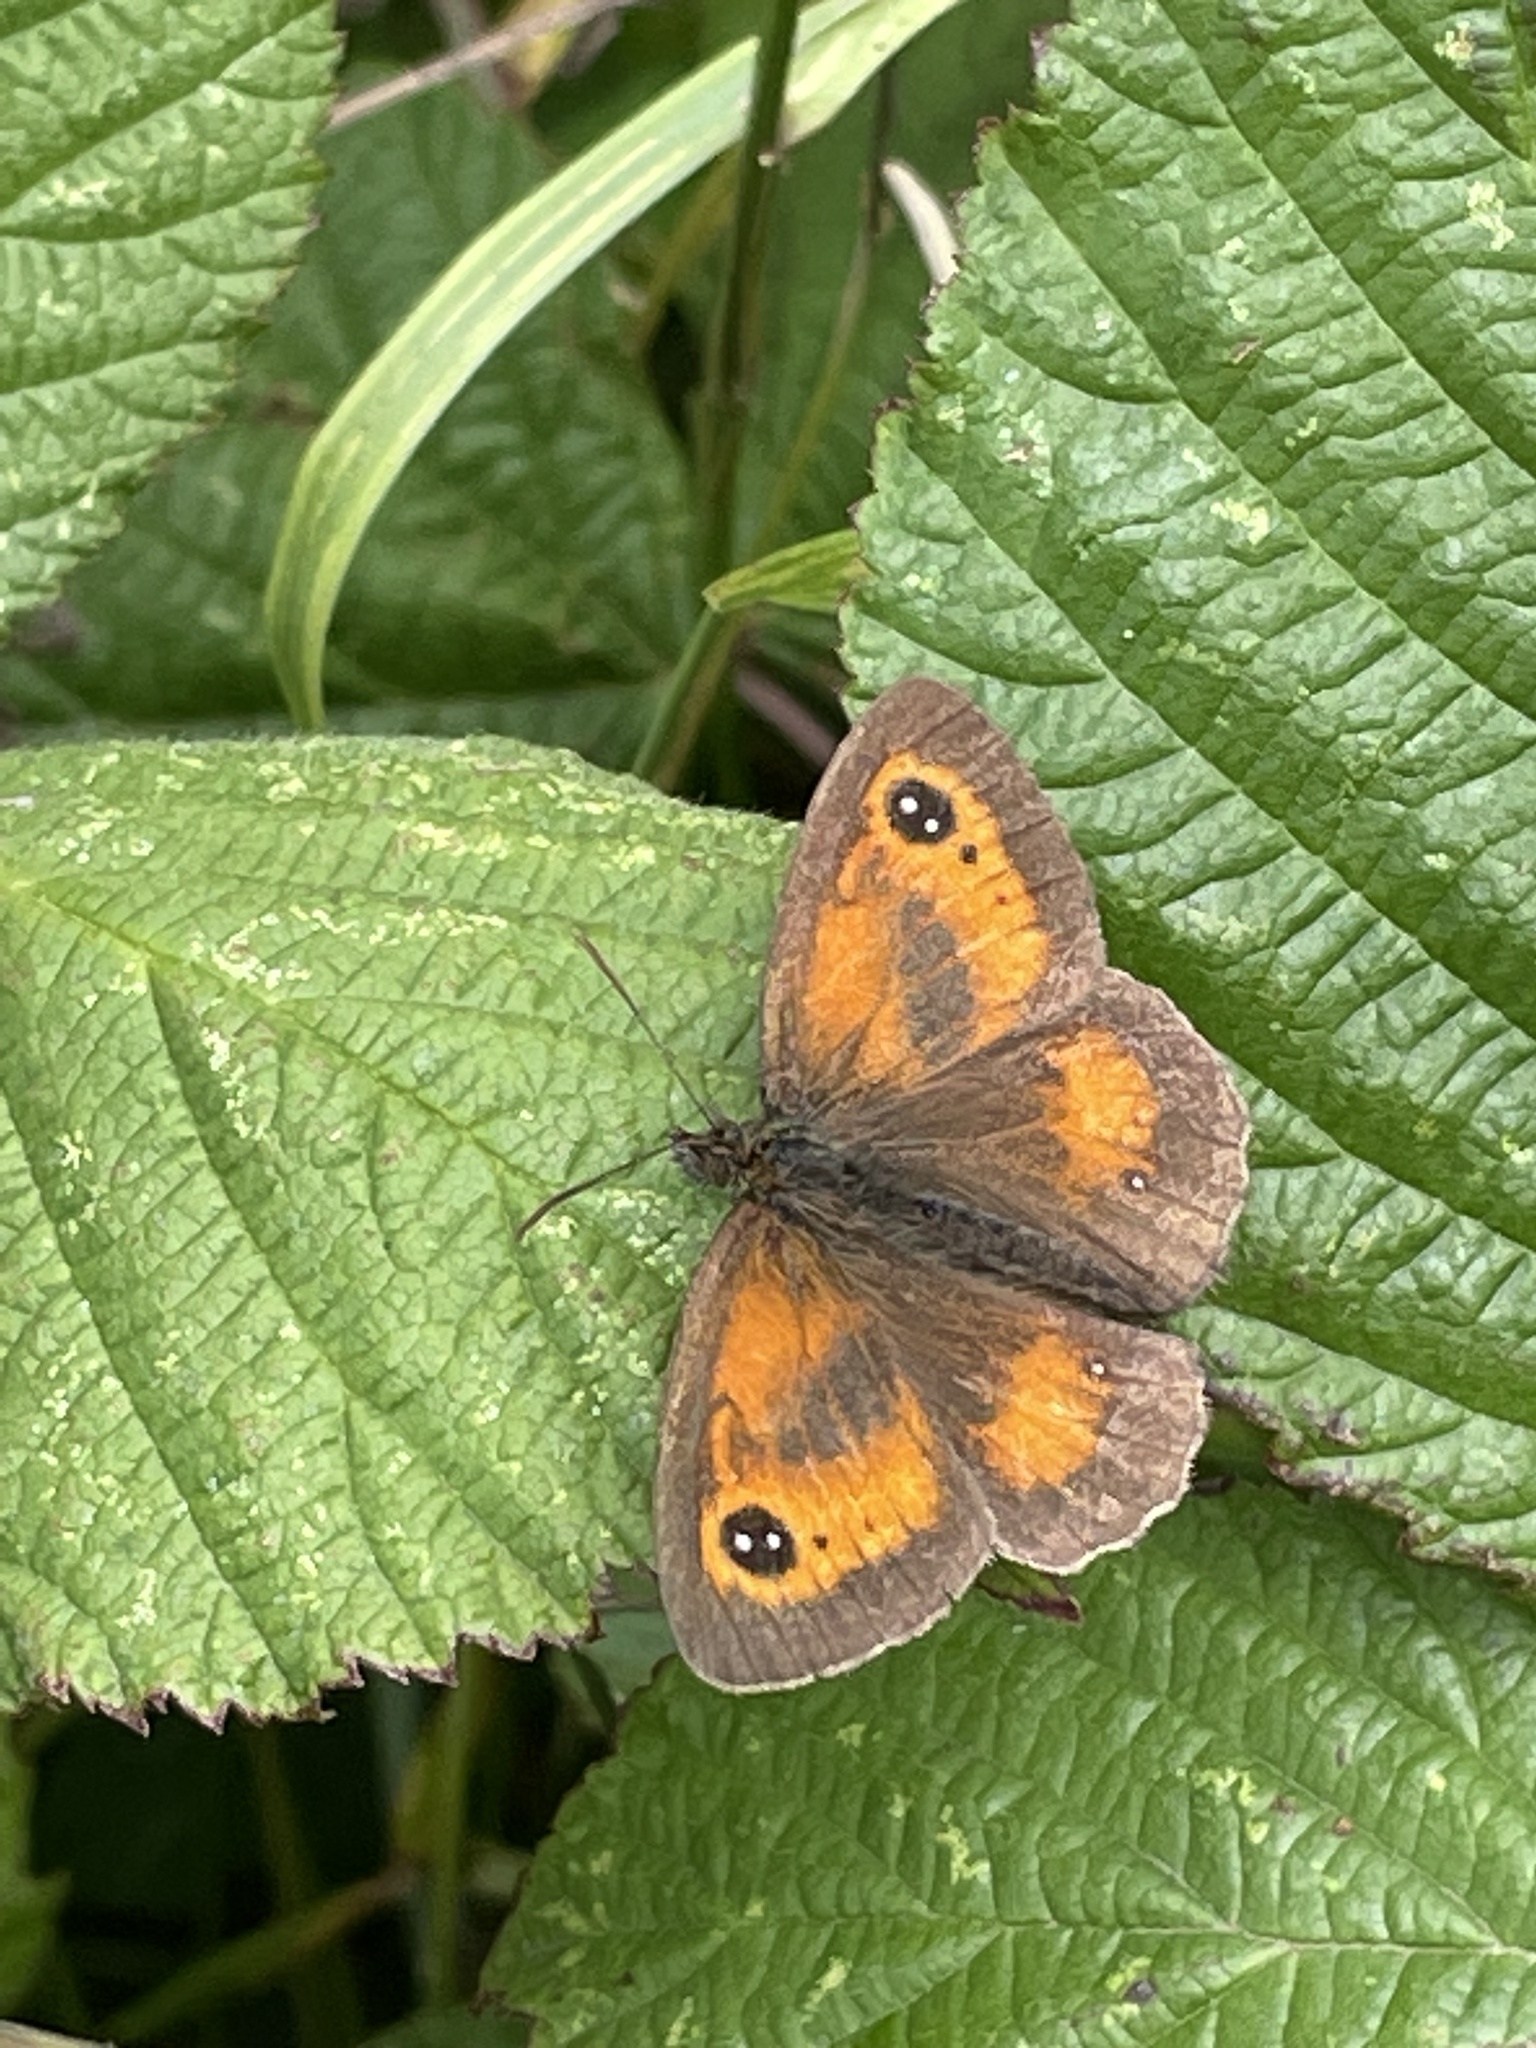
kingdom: Animalia
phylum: Arthropoda
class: Insecta
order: Lepidoptera
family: Nymphalidae
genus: Pyronia
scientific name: Pyronia tithonus
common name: Gatekeeper
